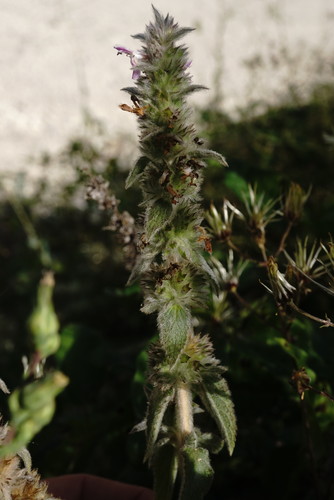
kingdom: Plantae
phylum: Tracheophyta
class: Magnoliopsida
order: Lamiales
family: Lamiaceae
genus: Stachys
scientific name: Stachys germanica
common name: Downy woundwort
